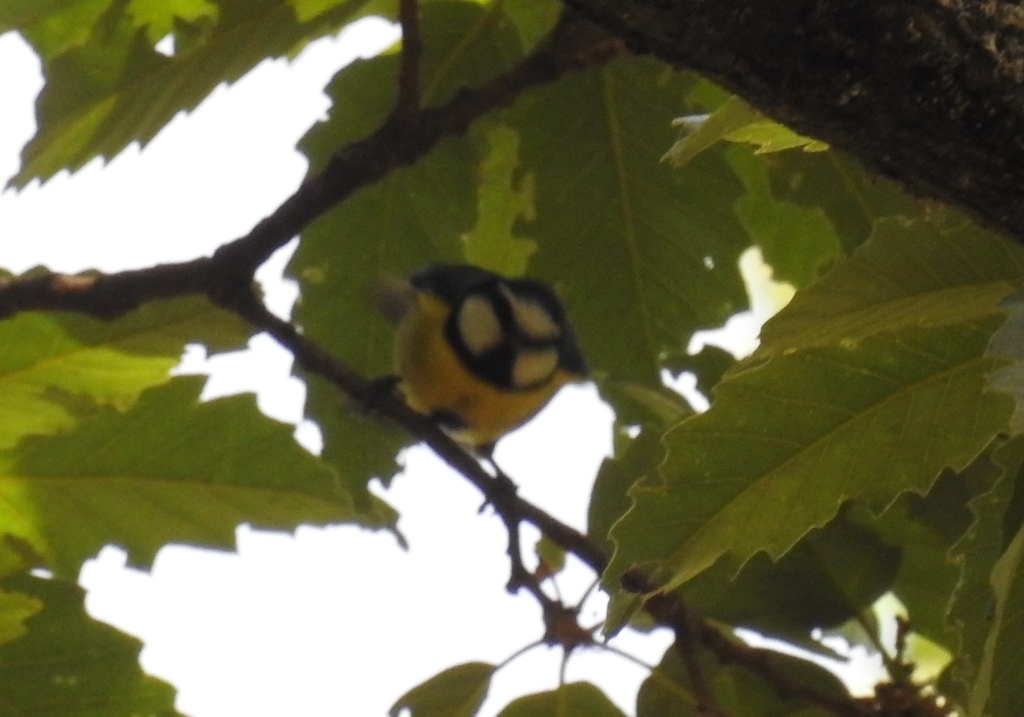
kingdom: Animalia
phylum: Chordata
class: Aves
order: Passeriformes
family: Paridae
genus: Cyanistes
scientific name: Cyanistes teneriffae
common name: African blue tit
